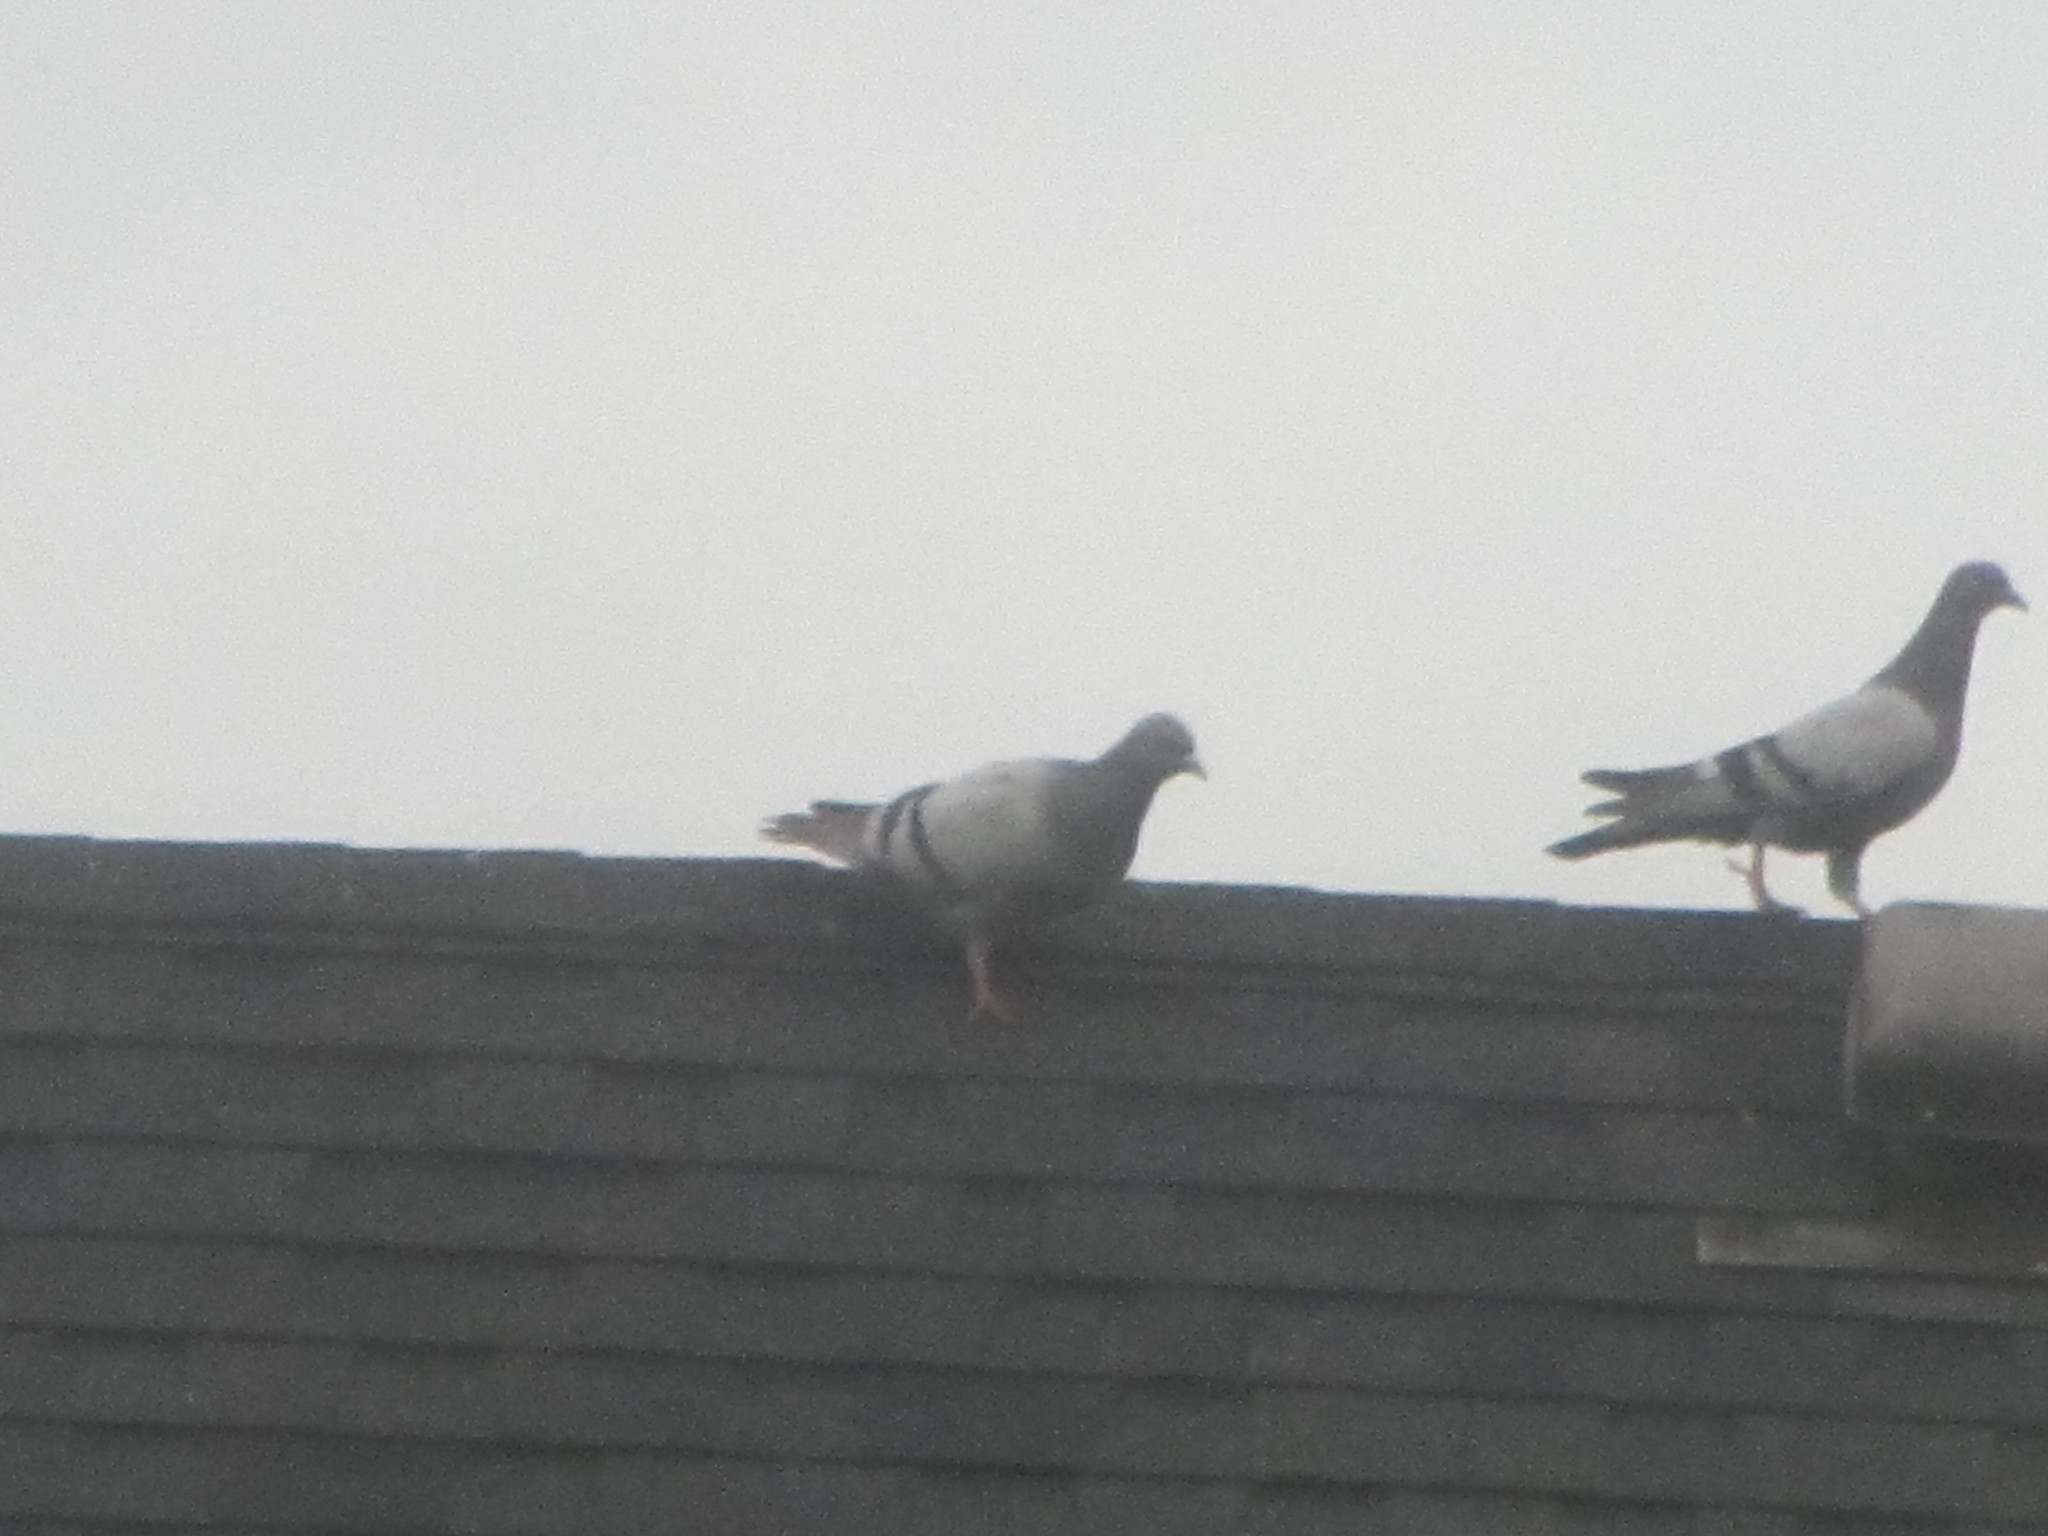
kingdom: Animalia
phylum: Chordata
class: Aves
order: Columbiformes
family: Columbidae
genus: Columba
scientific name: Columba livia
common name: Rock pigeon
